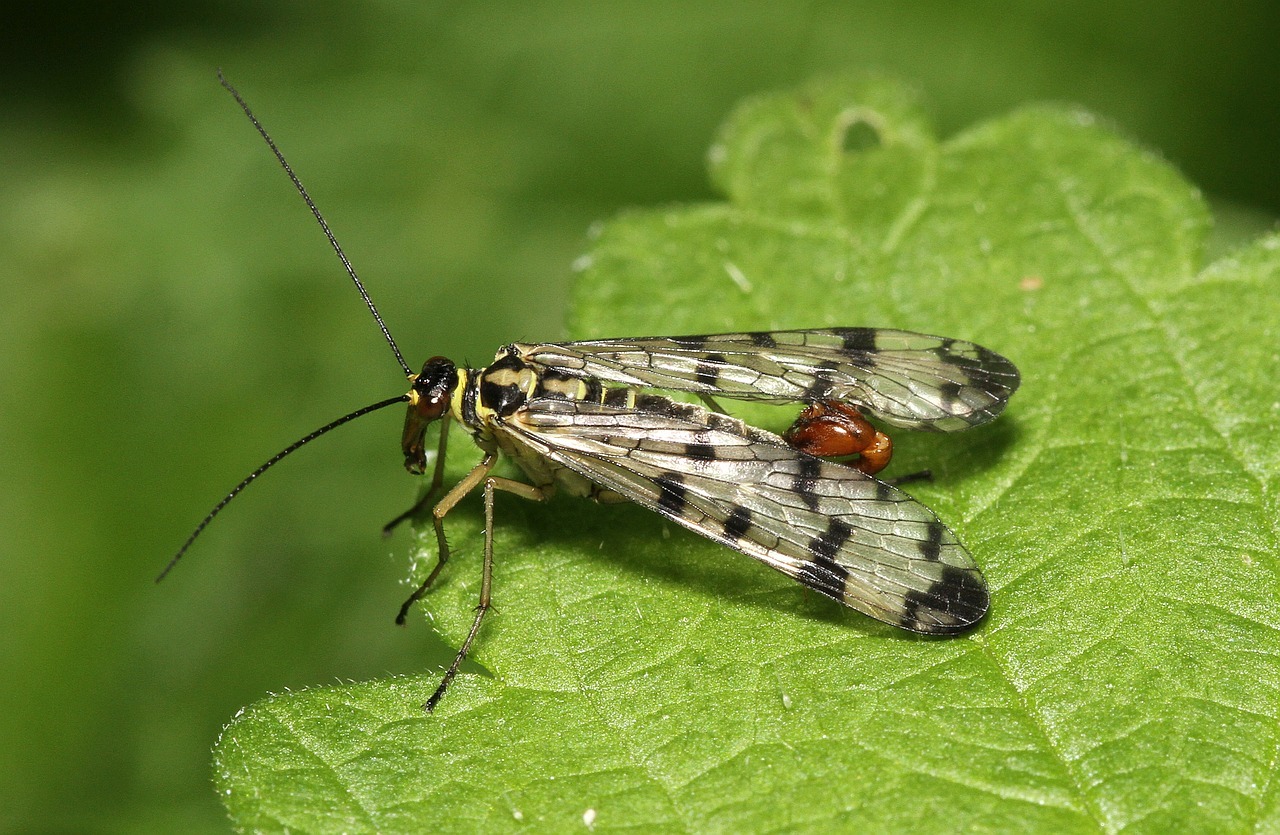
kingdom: Animalia
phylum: Arthropoda
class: Insecta
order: Mecoptera
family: Panorpidae
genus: Panorpa
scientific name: Panorpa communis
